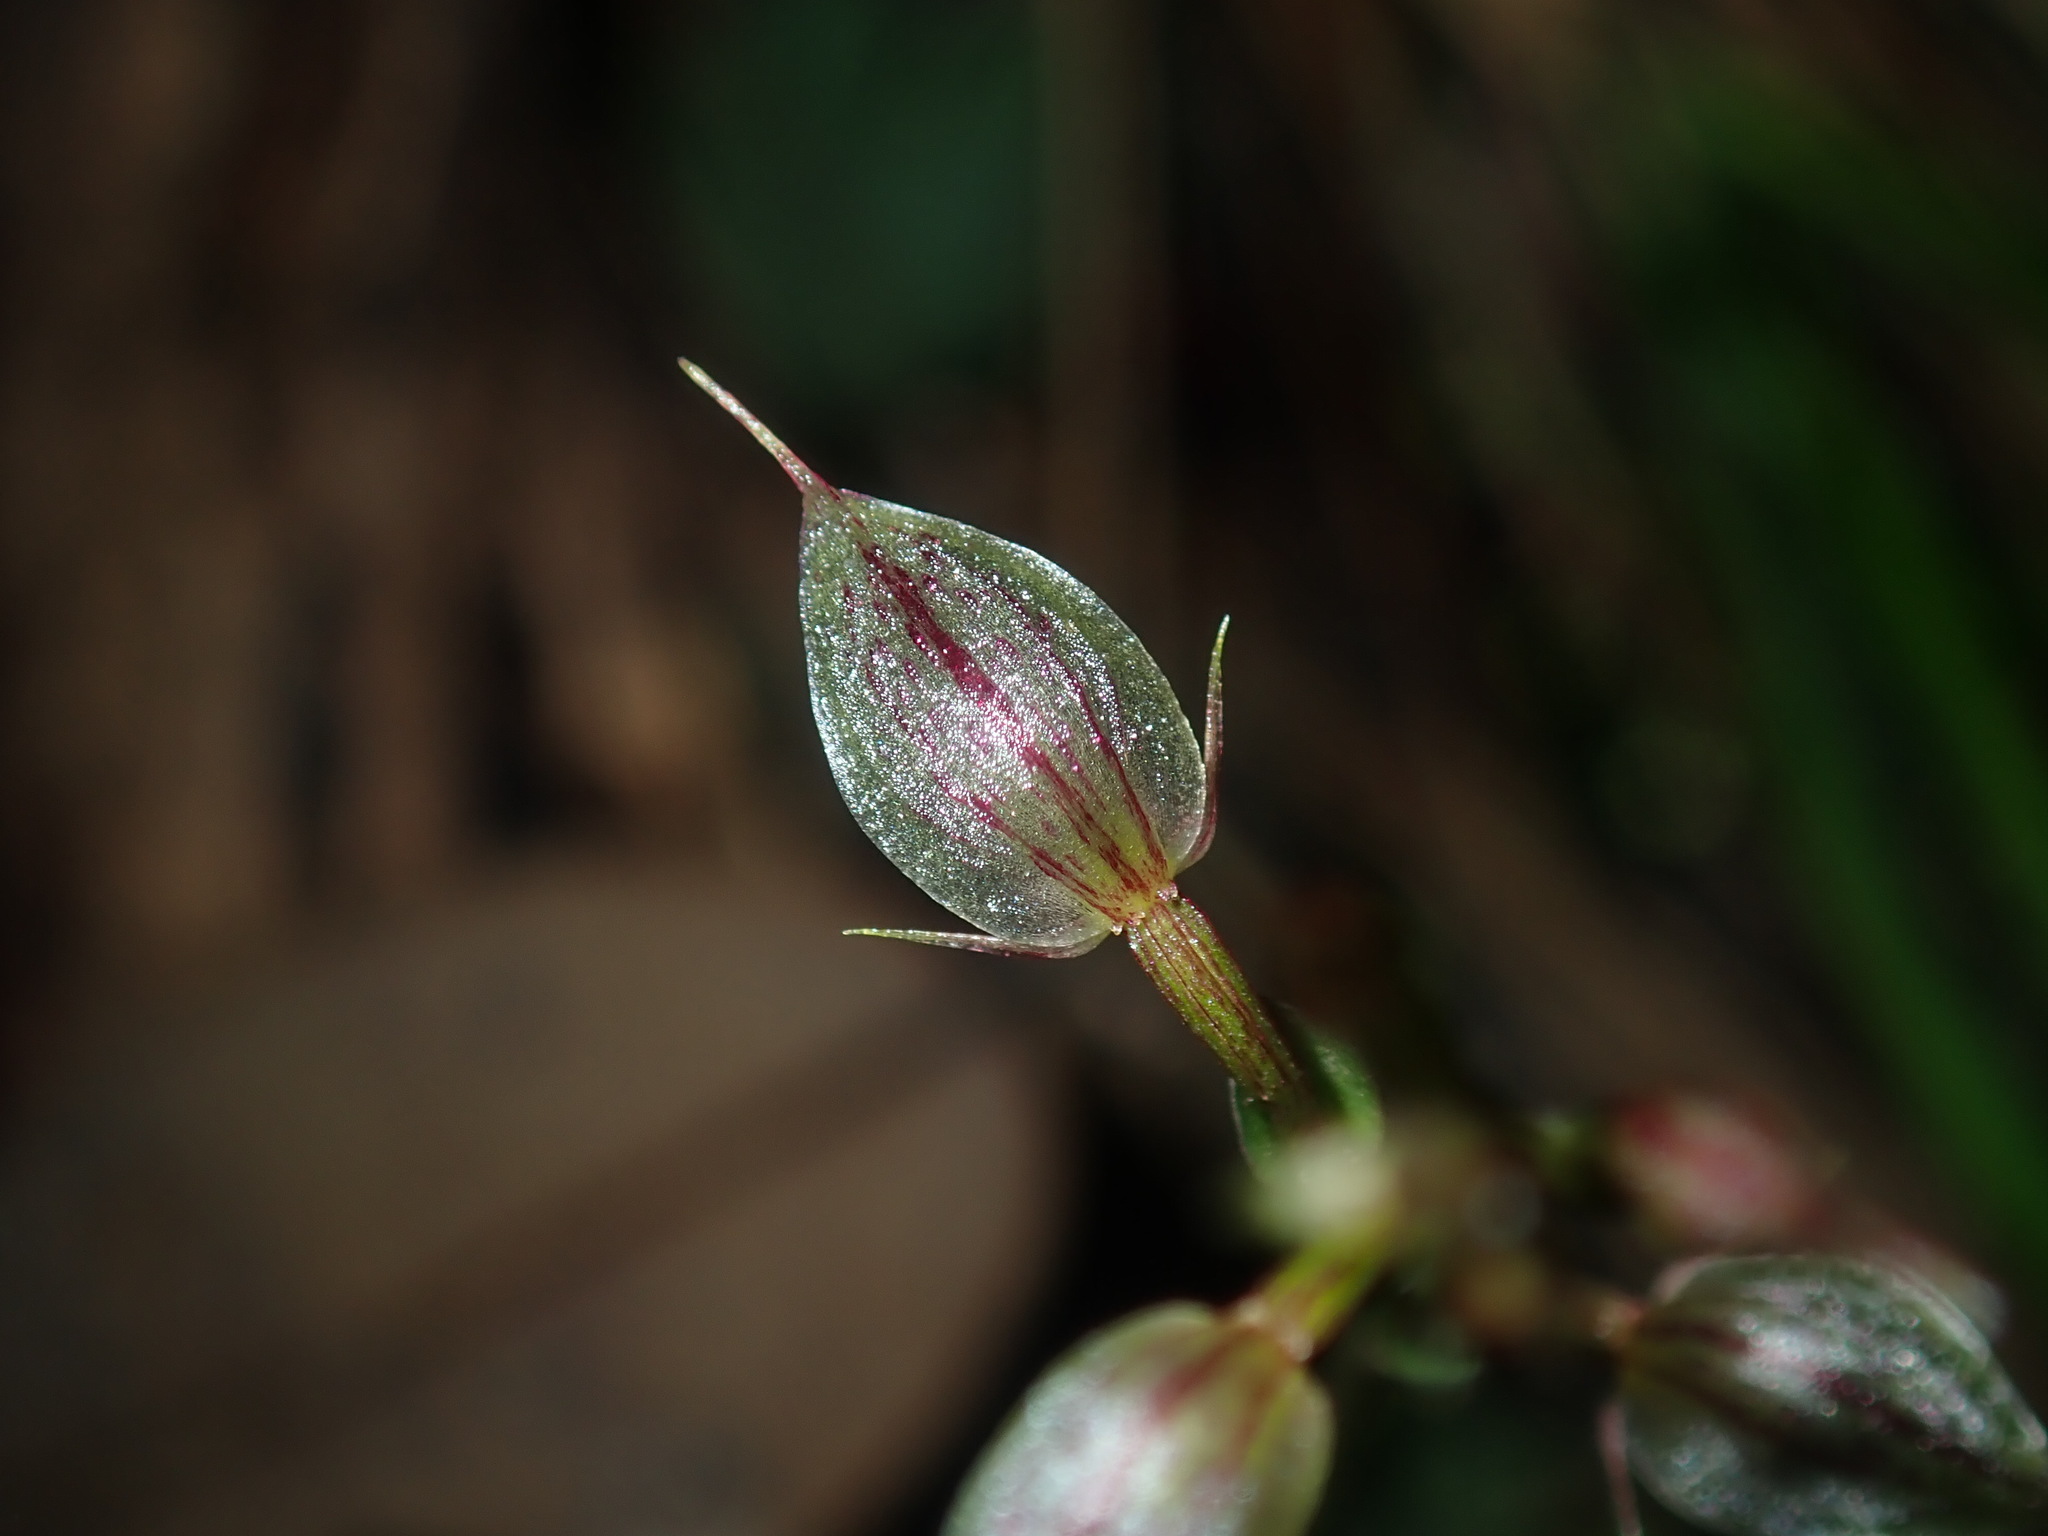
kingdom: Plantae
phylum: Tracheophyta
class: Liliopsida
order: Asparagales
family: Orchidaceae
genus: Acianthus
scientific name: Acianthus fornicatus
